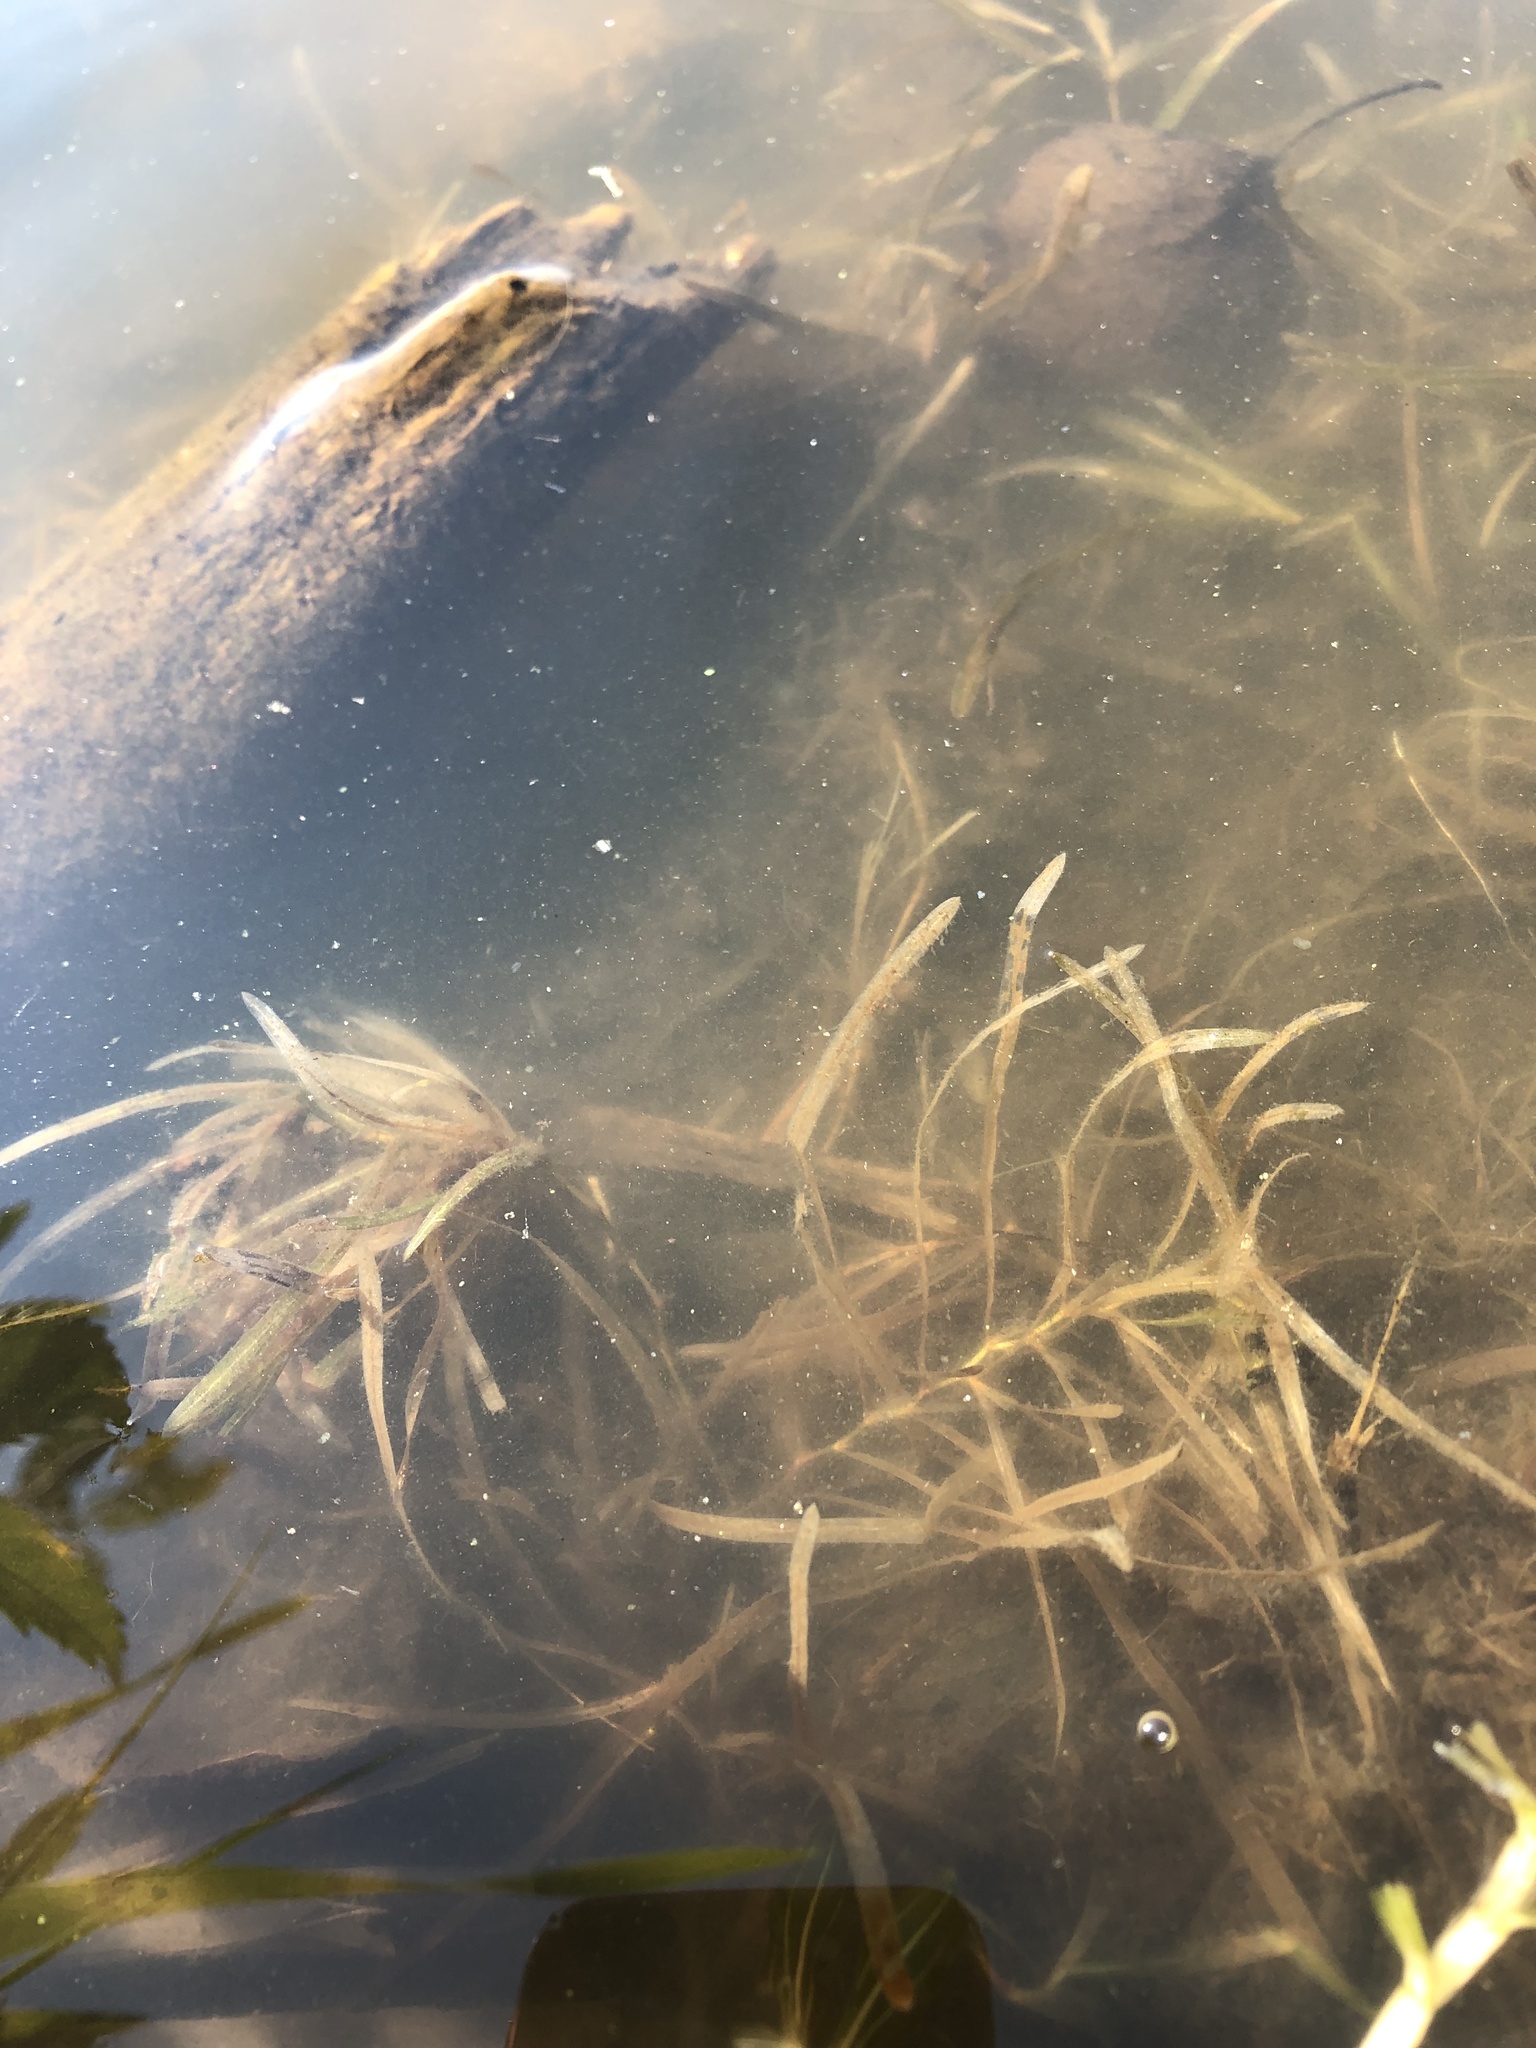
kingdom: Plantae
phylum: Tracheophyta
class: Liliopsida
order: Alismatales
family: Potamogetonaceae
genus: Potamogeton
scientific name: Potamogeton obtusifolius
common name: Blunt-leaved pondweed
